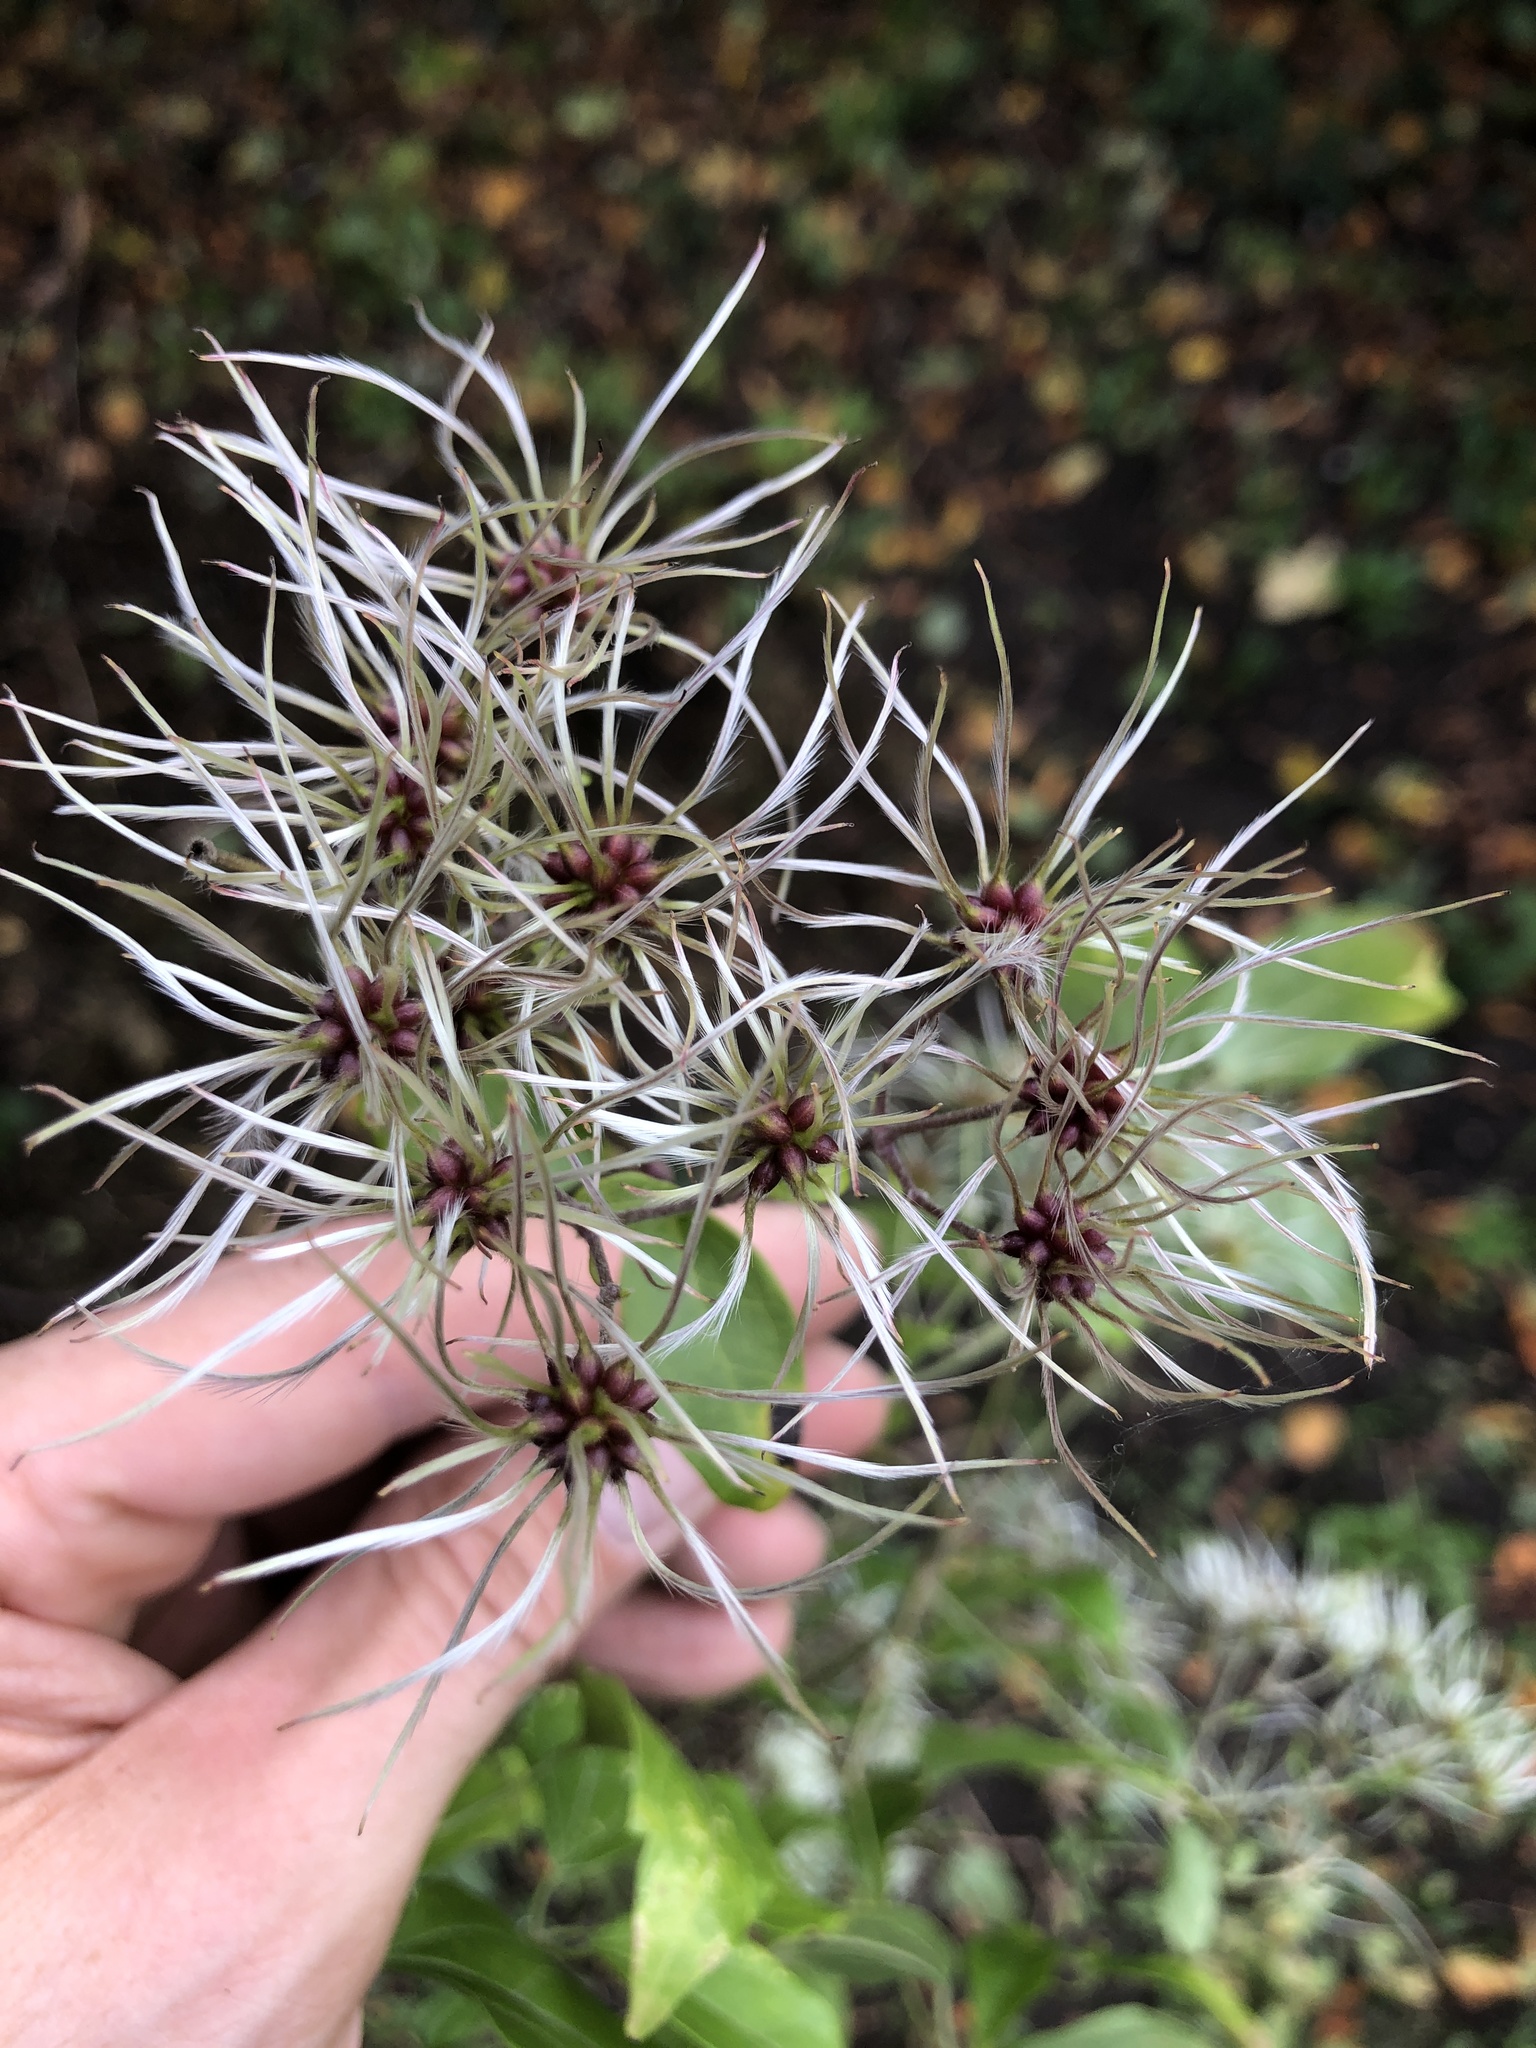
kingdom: Plantae
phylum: Tracheophyta
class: Magnoliopsida
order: Ranunculales
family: Ranunculaceae
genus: Clematis
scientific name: Clematis vitalba
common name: Evergreen clematis
